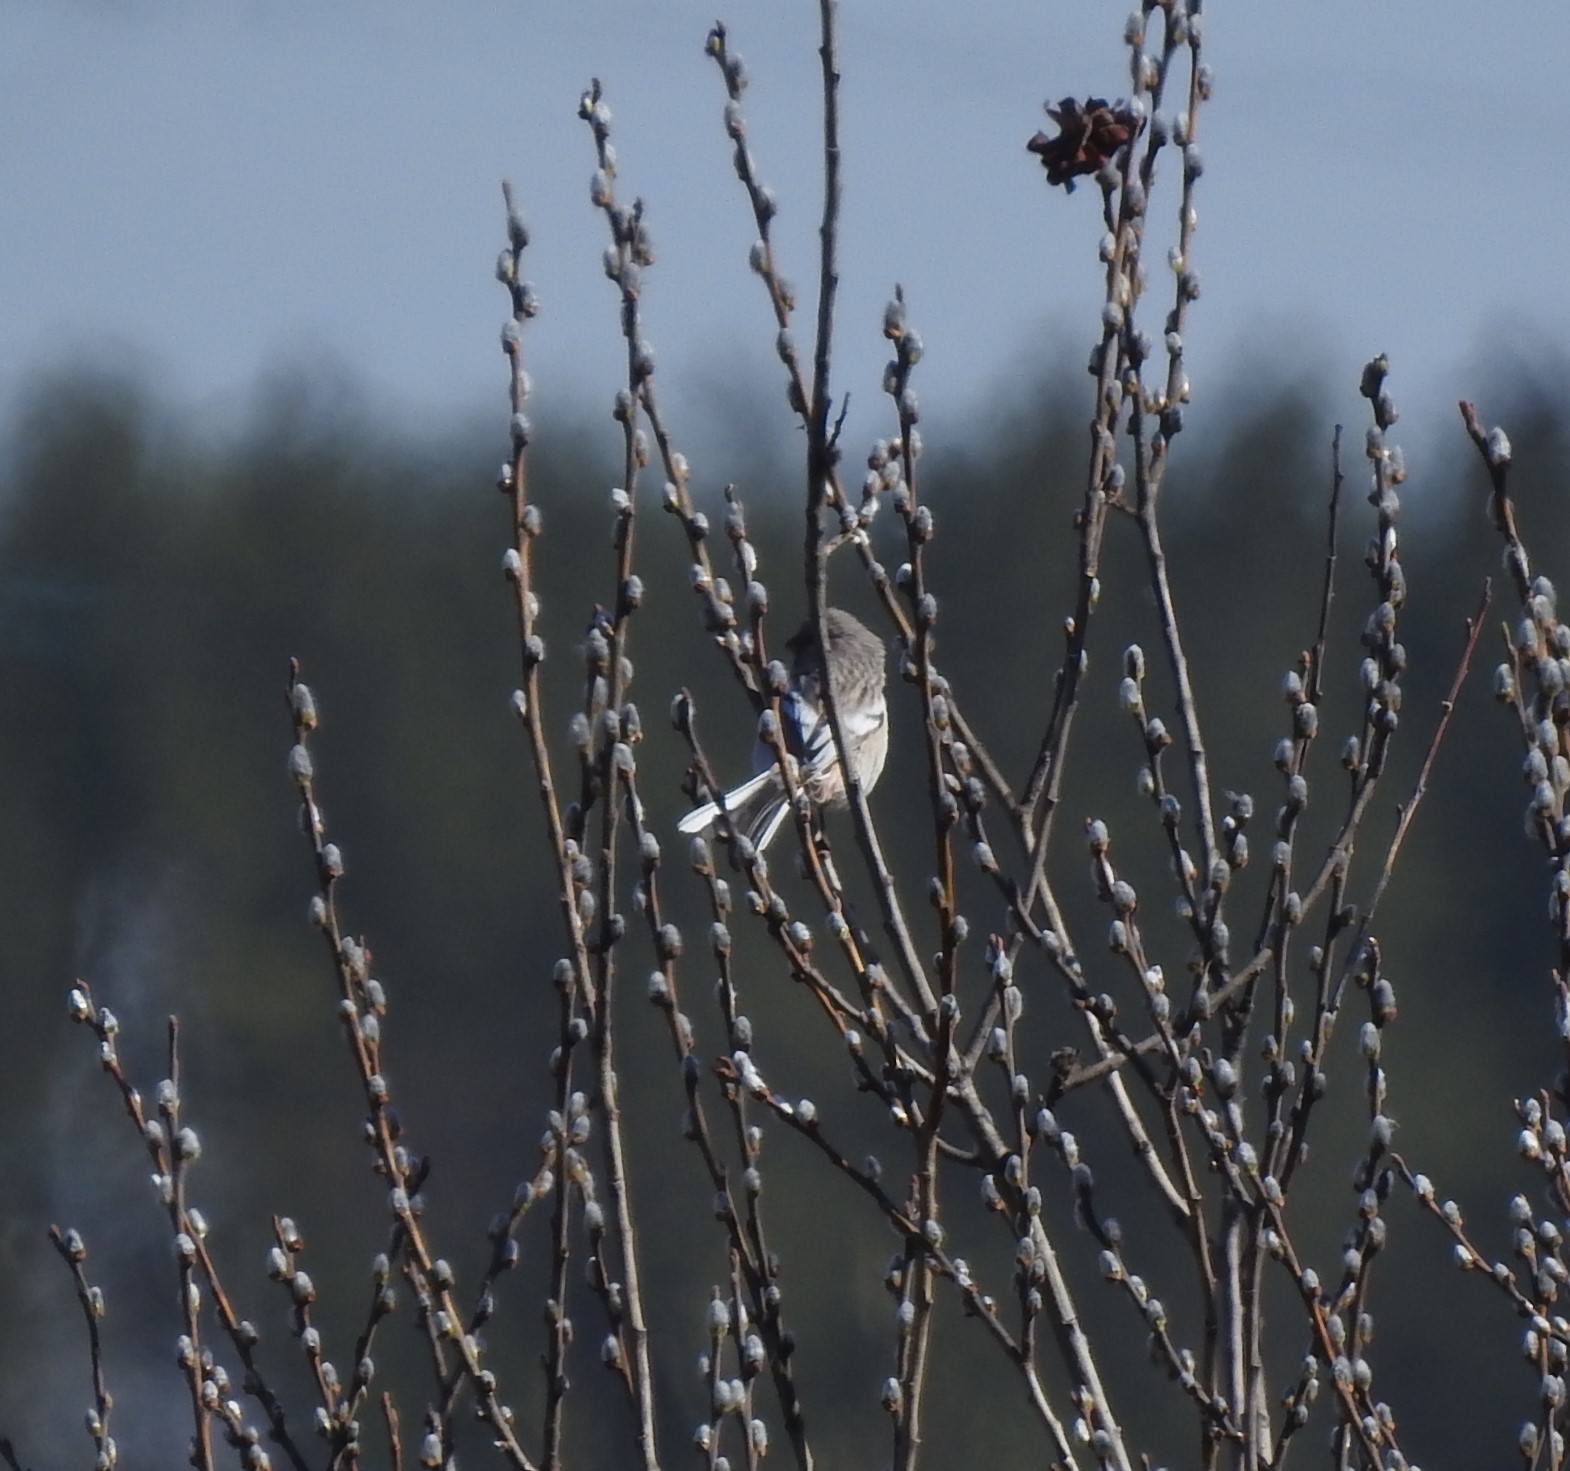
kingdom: Animalia
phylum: Chordata
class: Aves
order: Passeriformes
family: Fringillidae
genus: Carpodacus
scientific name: Carpodacus sibiricus
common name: Long-tailed rosefinch
